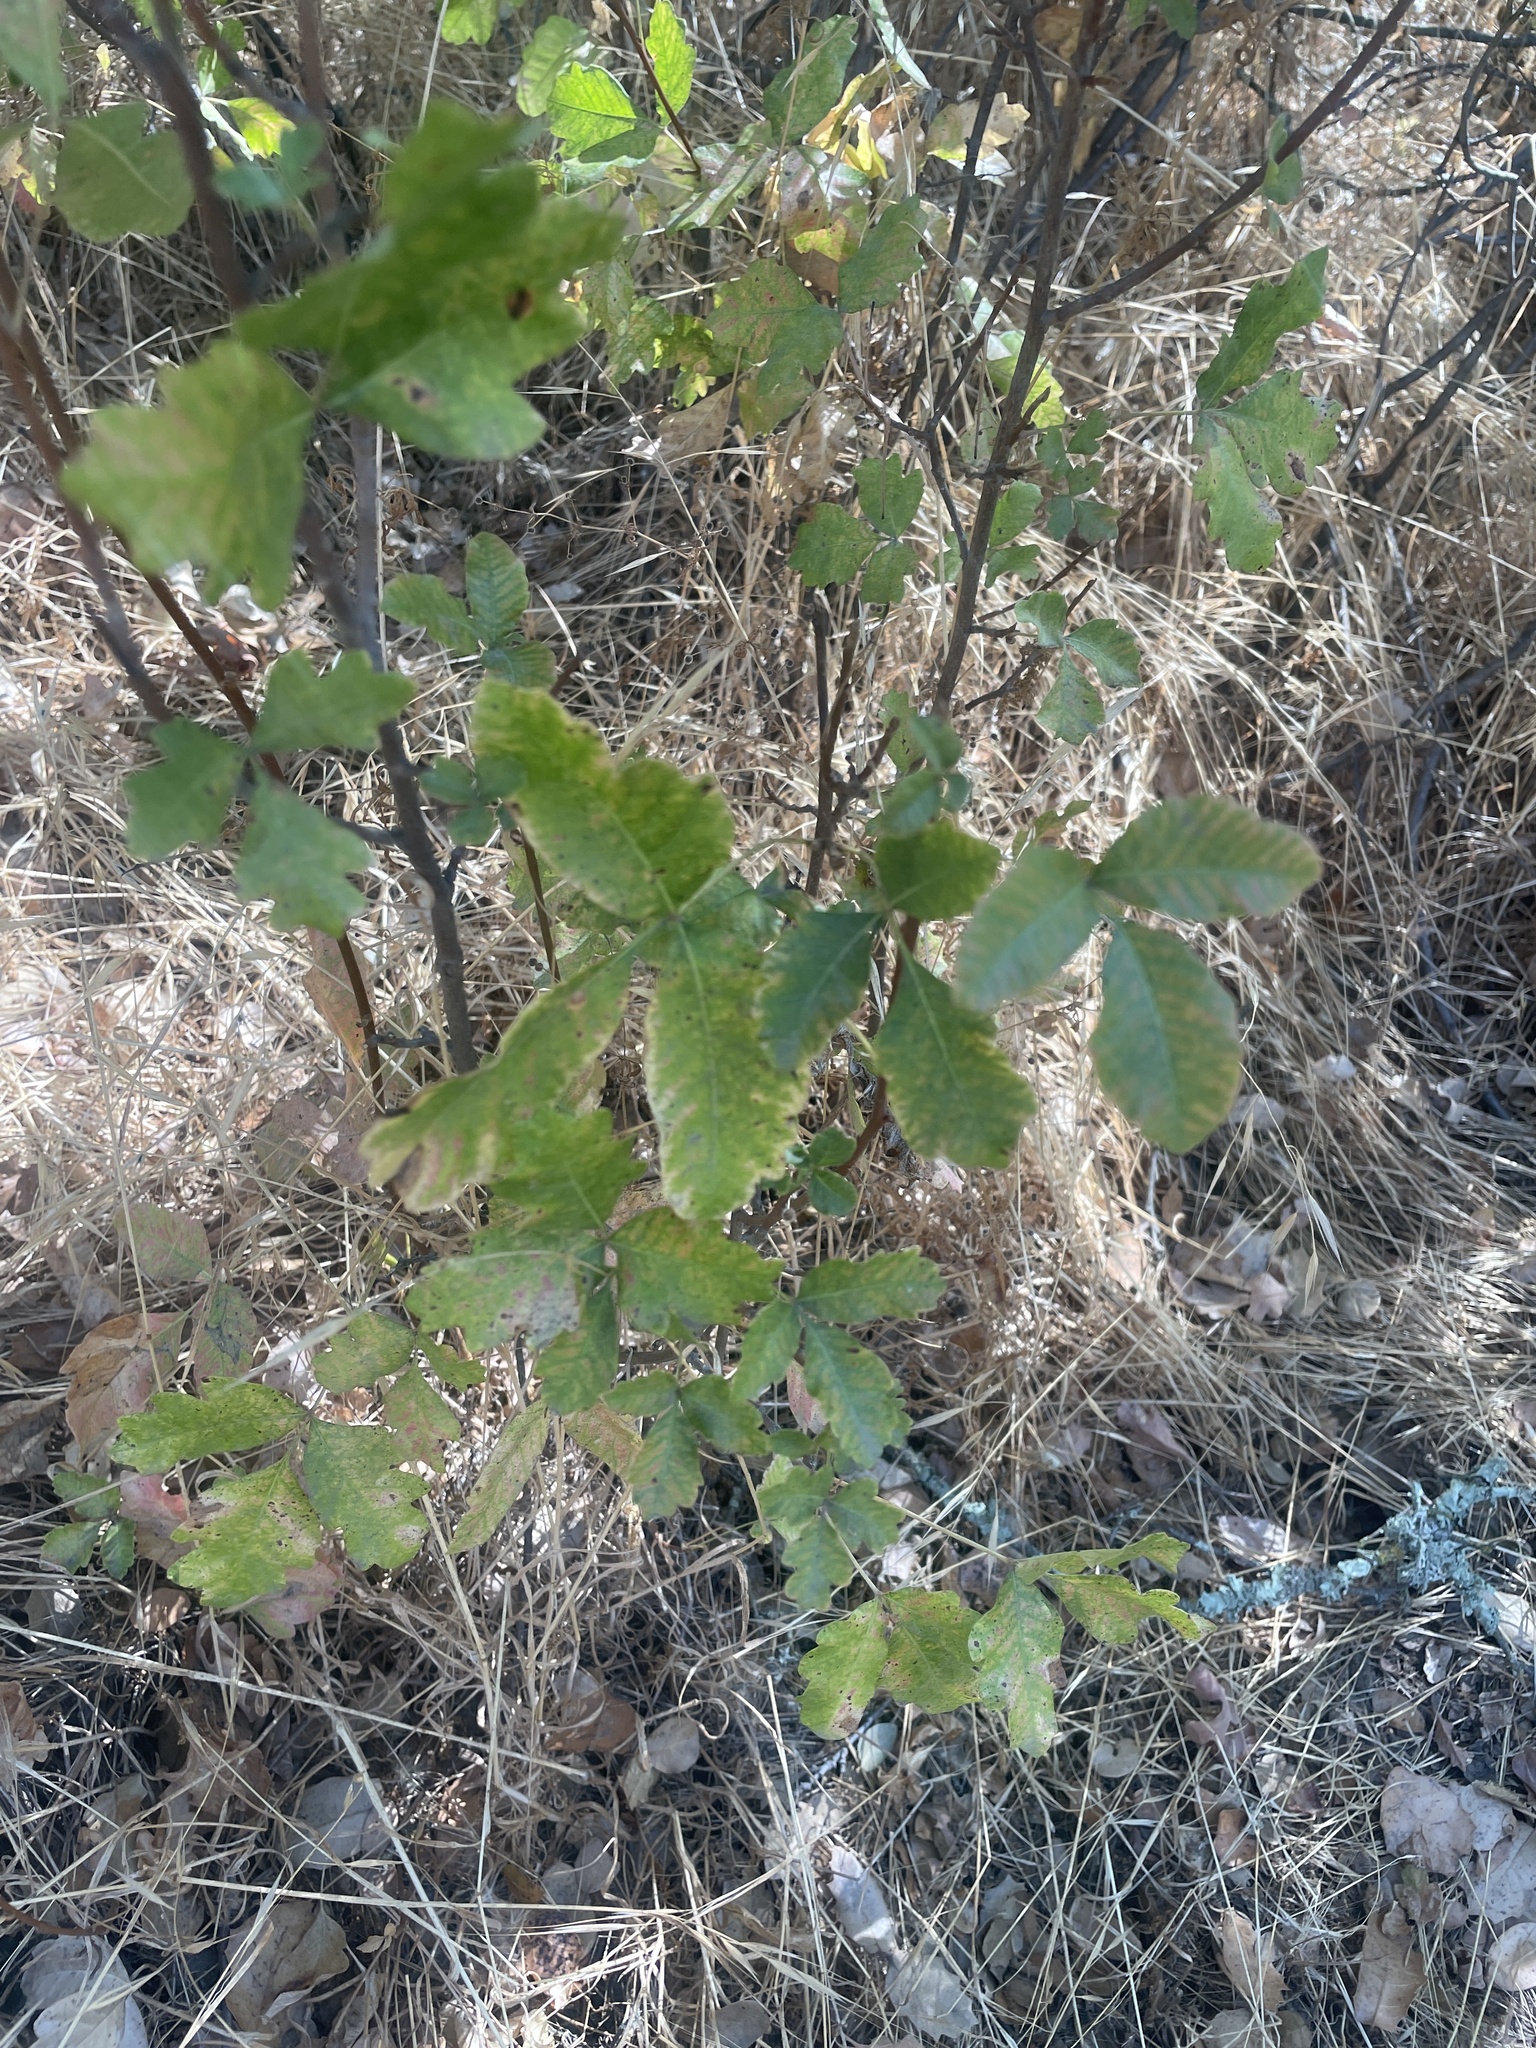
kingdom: Plantae
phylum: Tracheophyta
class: Magnoliopsida
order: Sapindales
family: Anacardiaceae
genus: Toxicodendron
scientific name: Toxicodendron diversilobum
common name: Pacific poison-oak
